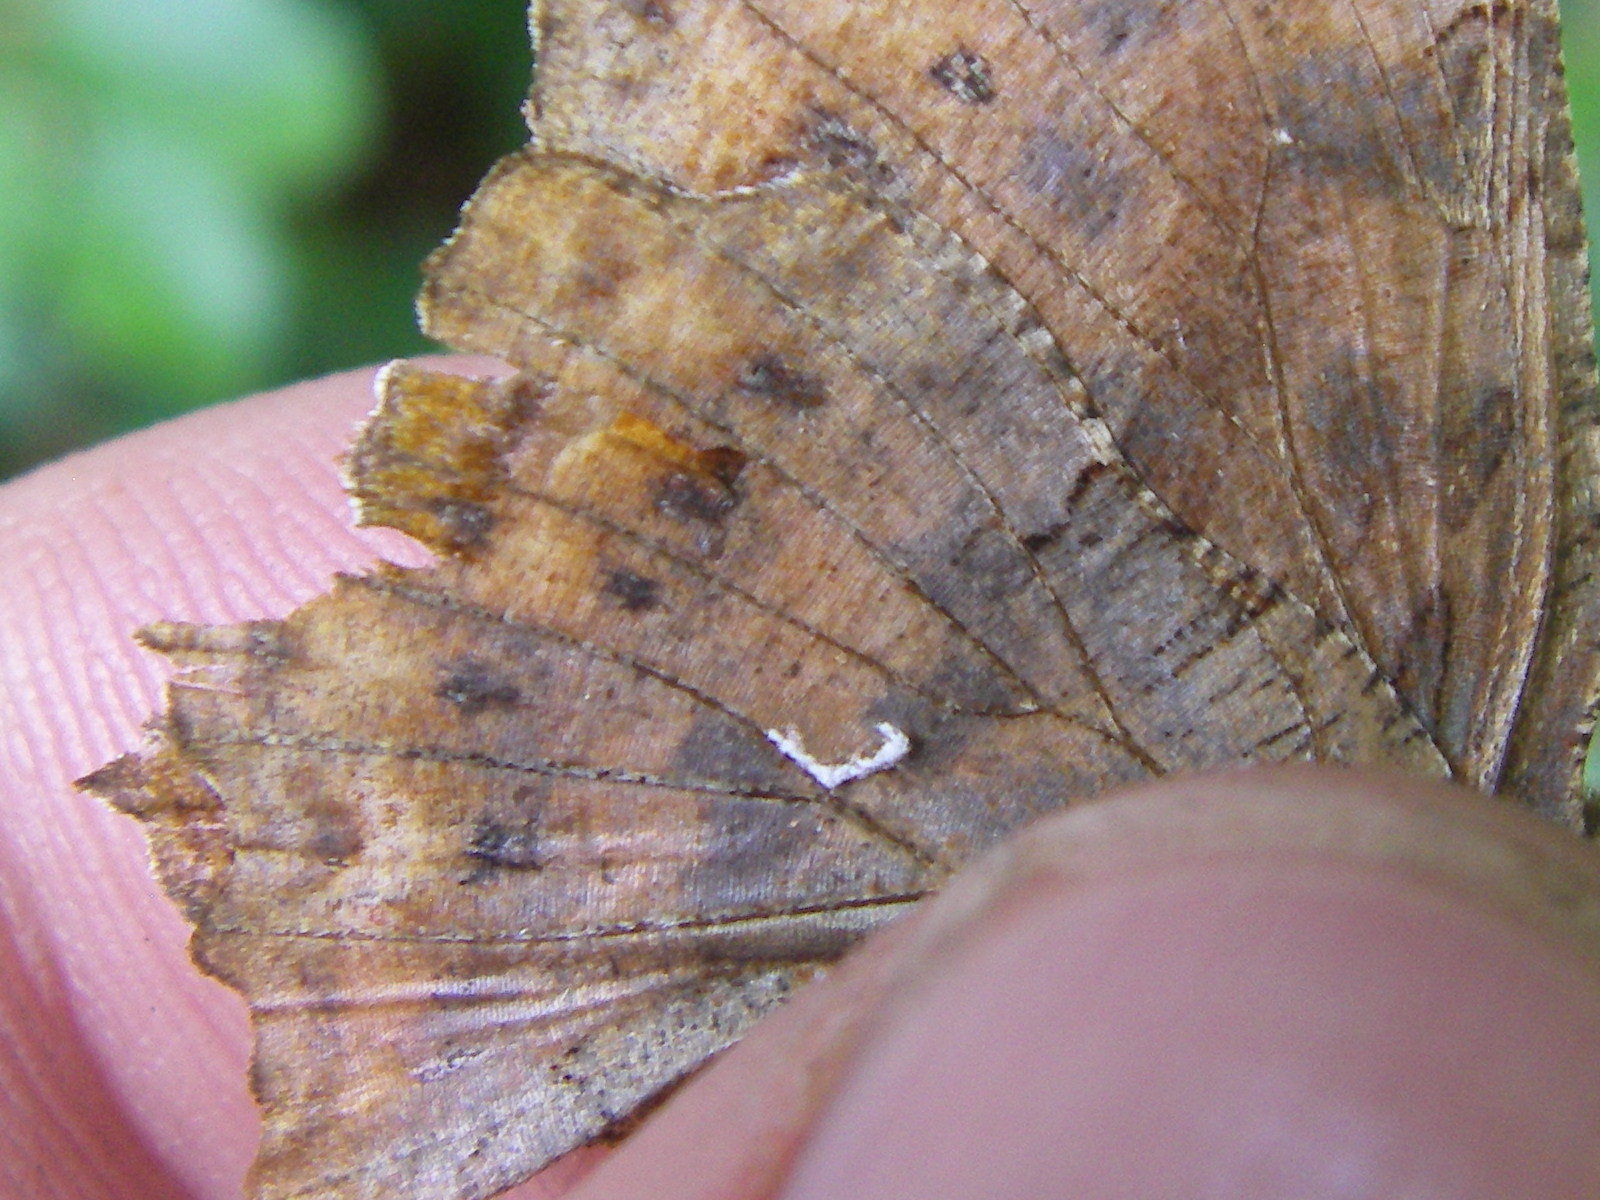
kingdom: Animalia
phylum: Arthropoda
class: Insecta
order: Lepidoptera
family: Nymphalidae
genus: Polygonia
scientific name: Polygonia c-album
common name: Comma
